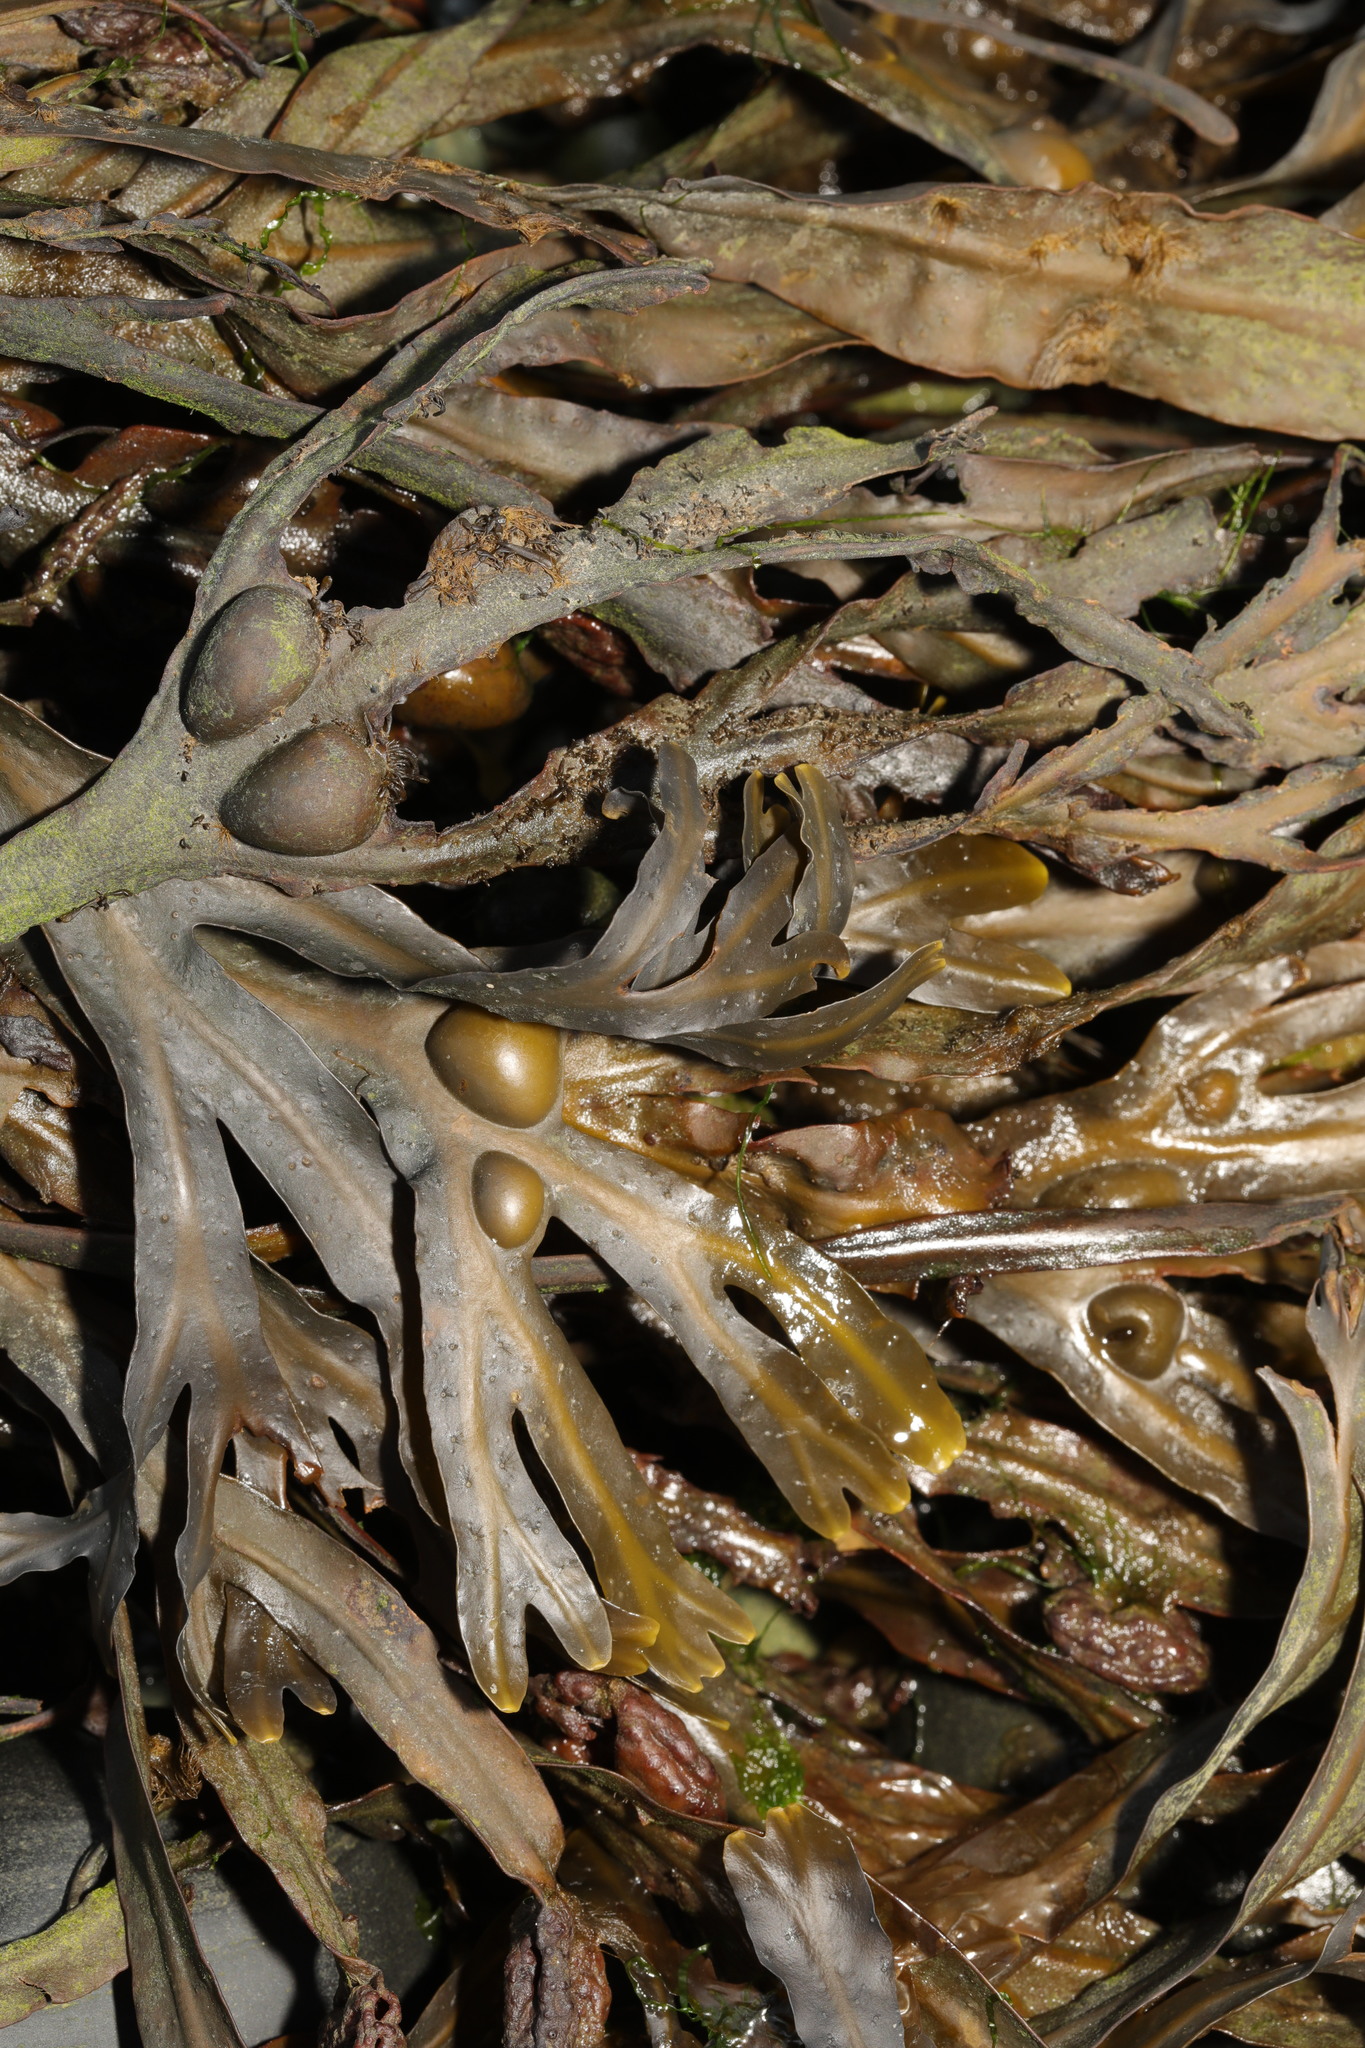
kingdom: Chromista
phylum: Ochrophyta
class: Phaeophyceae
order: Fucales
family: Fucaceae
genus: Fucus
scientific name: Fucus vesiculosus
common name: Bladder wrack
